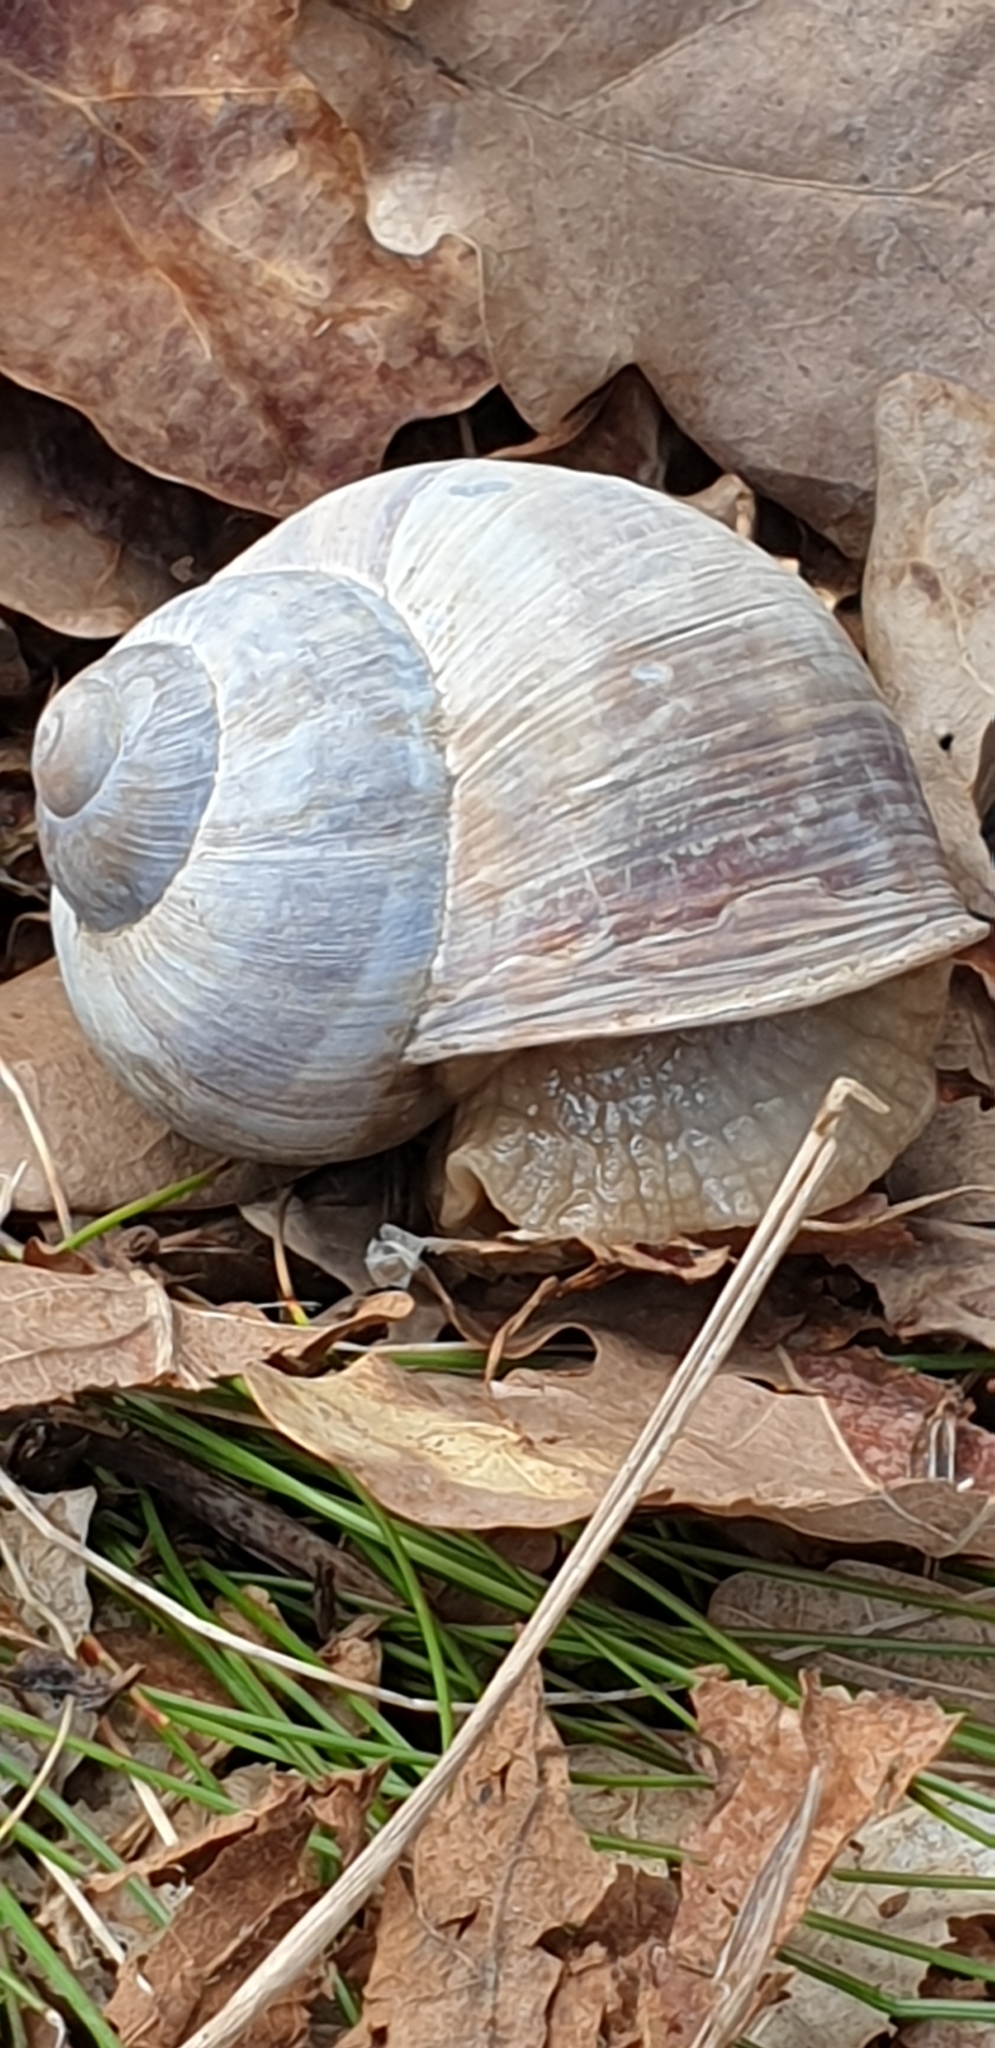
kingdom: Animalia
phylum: Mollusca
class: Gastropoda
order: Stylommatophora
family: Helicidae
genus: Helix
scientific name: Helix pomatia
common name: Roman snail
